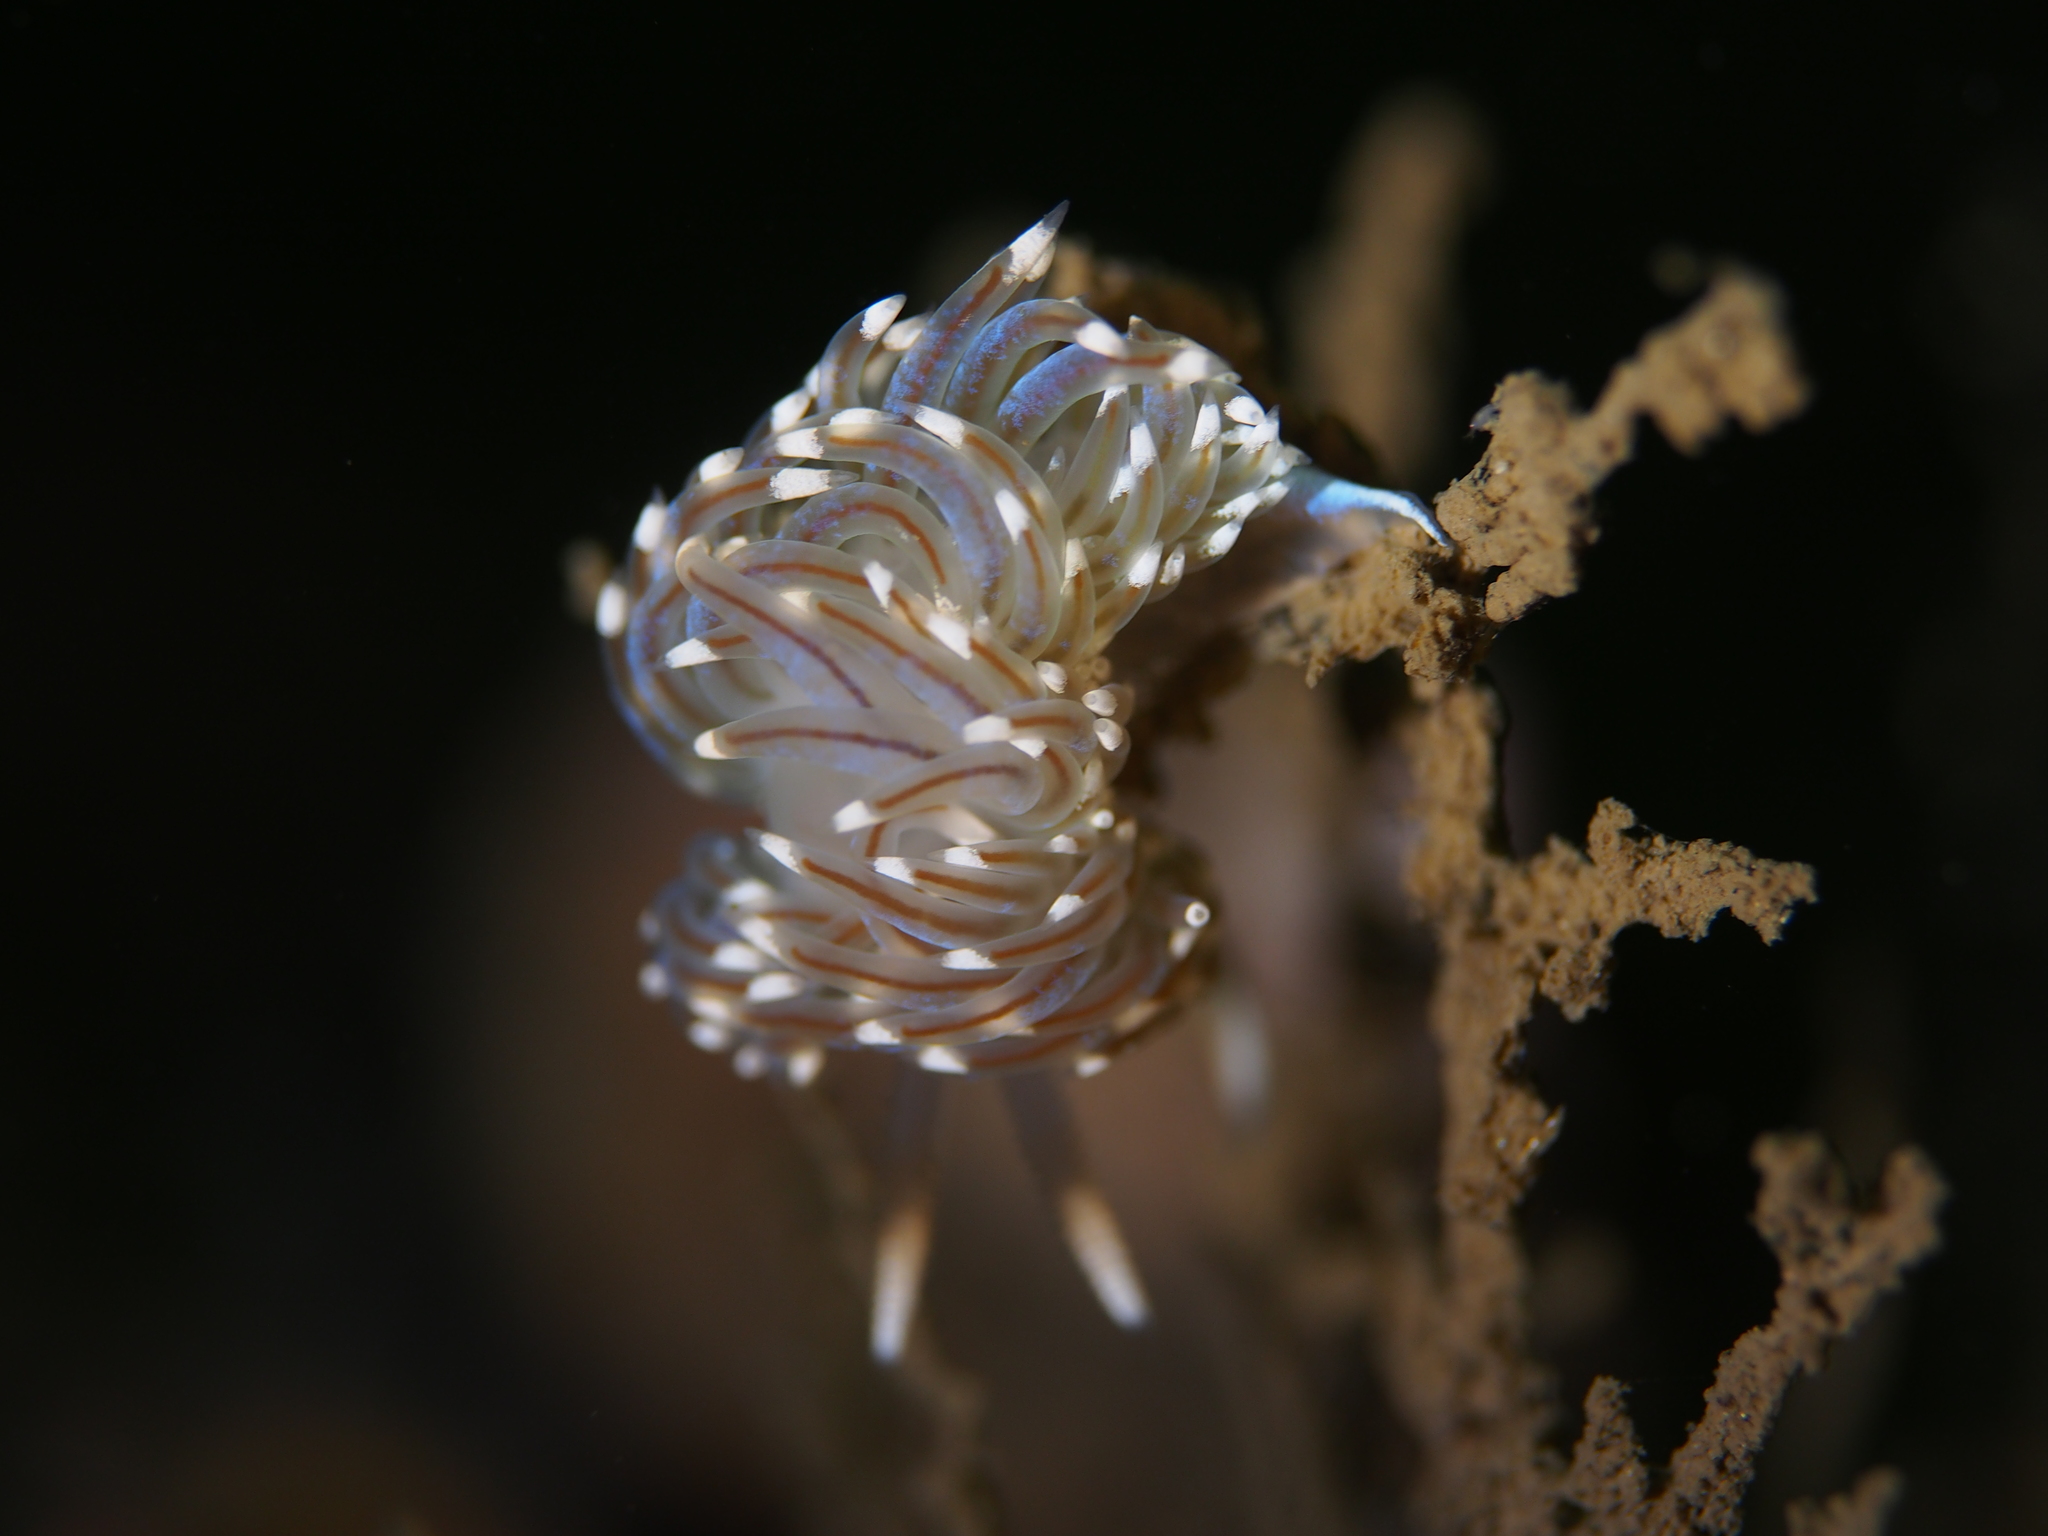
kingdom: Animalia
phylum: Mollusca
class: Gastropoda
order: Nudibranchia
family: Facelinidae
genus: Facelina
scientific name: Facelina auriculata
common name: Slender facelina
